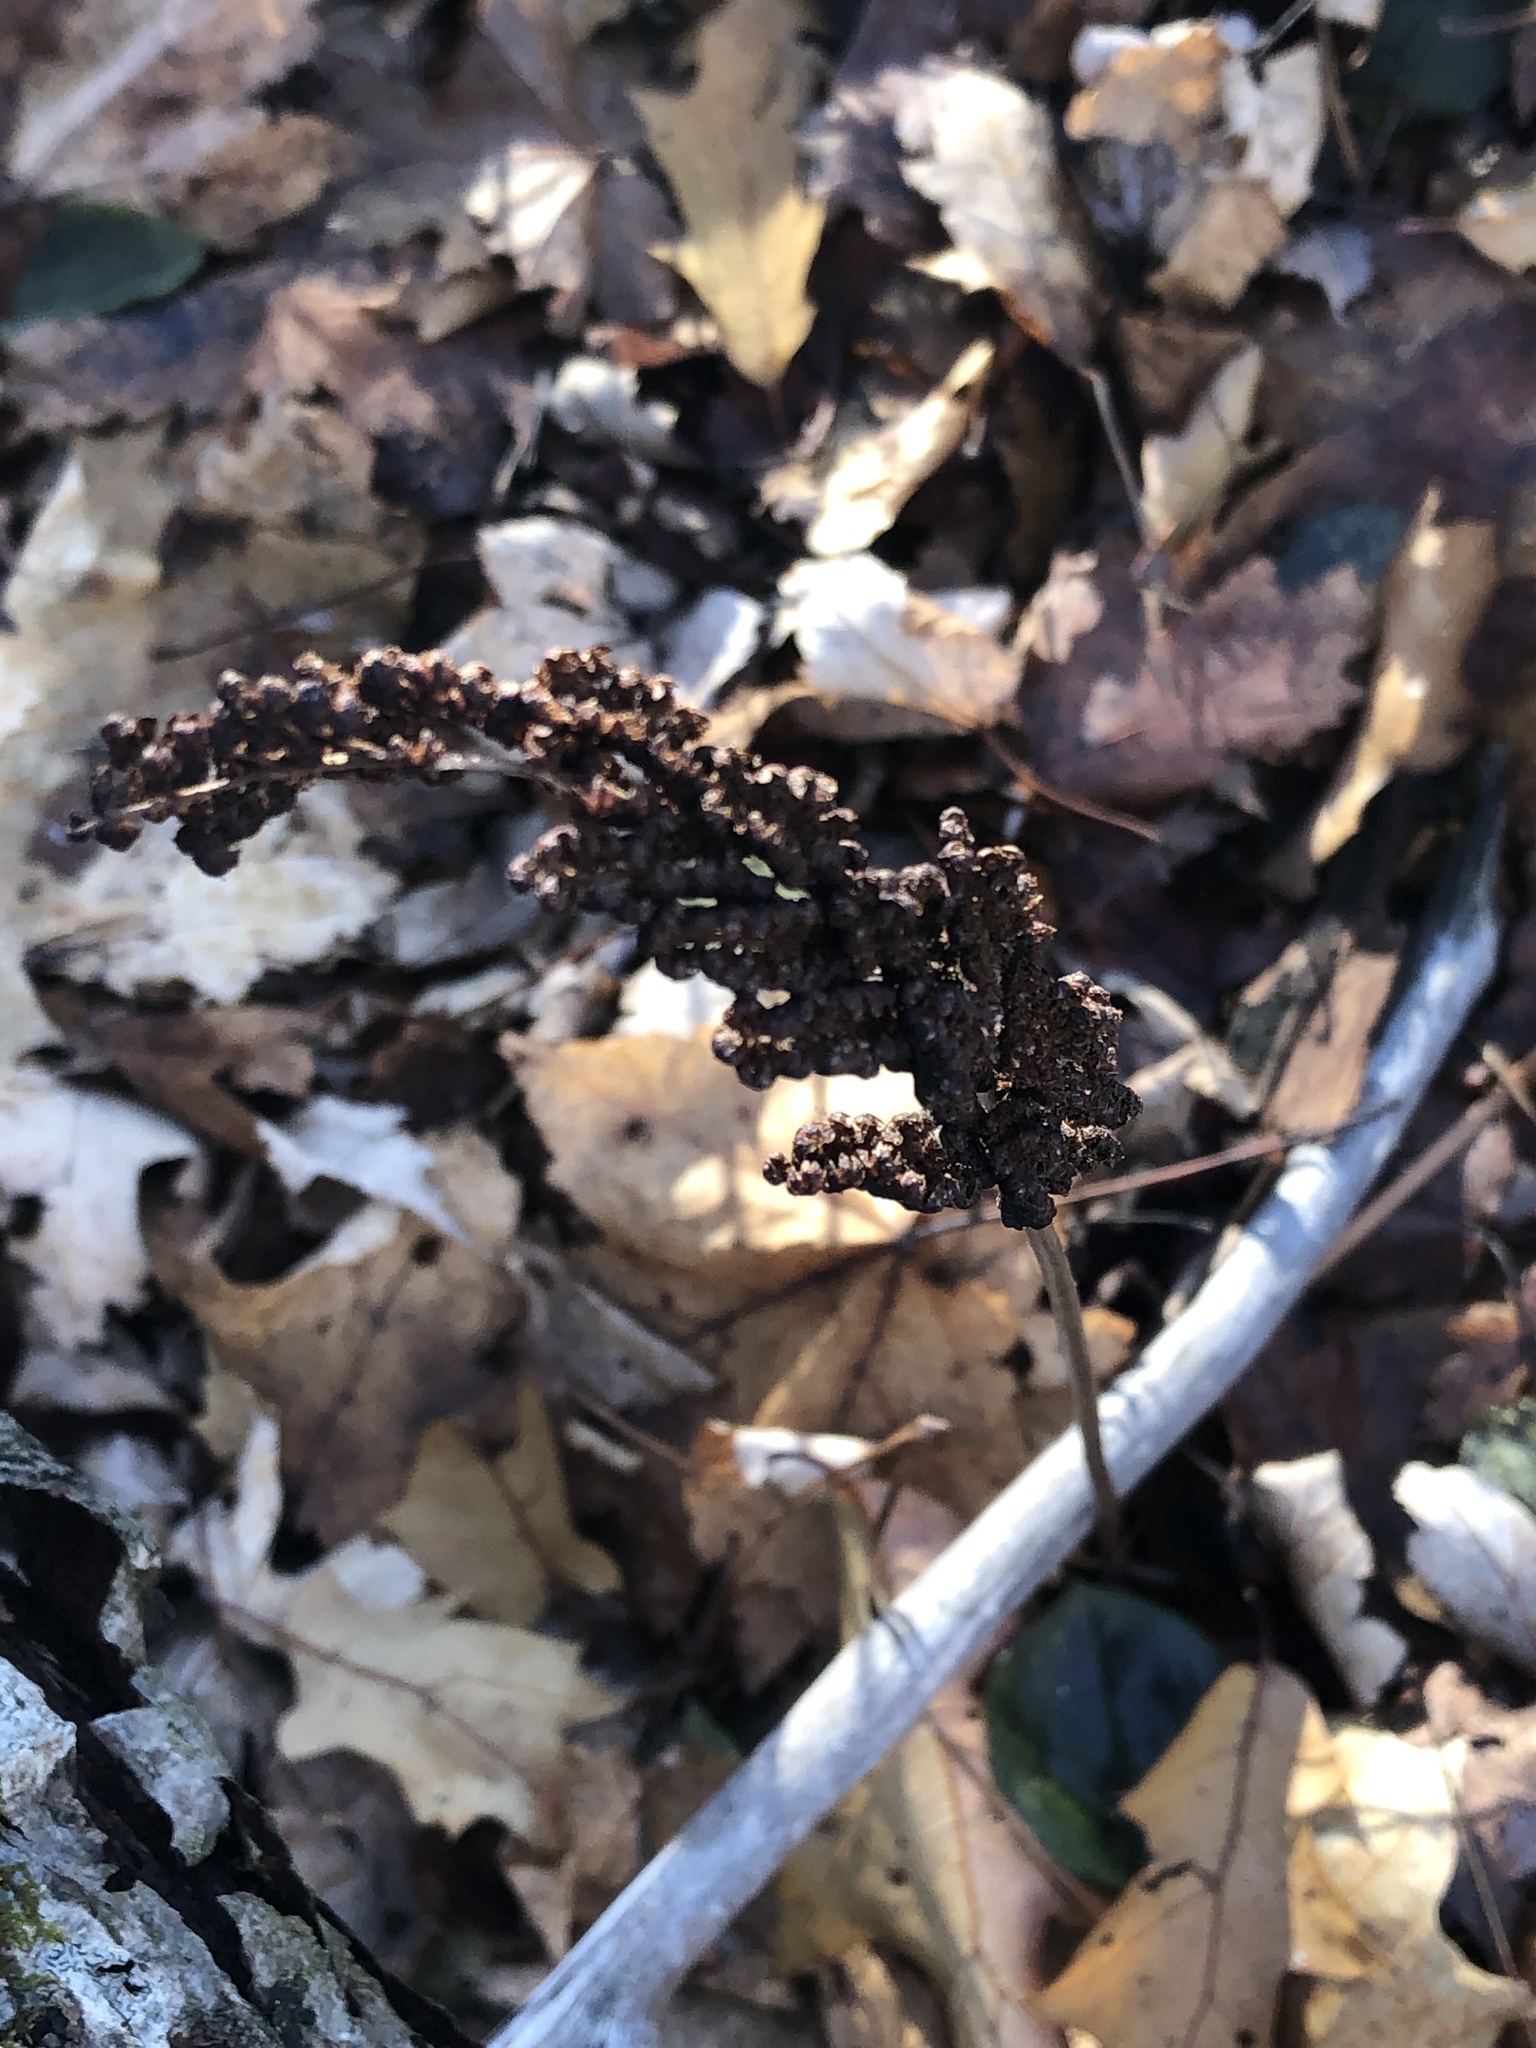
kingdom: Plantae
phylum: Tracheophyta
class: Polypodiopsida
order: Polypodiales
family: Onocleaceae
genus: Onoclea
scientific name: Onoclea sensibilis
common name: Sensitive fern
